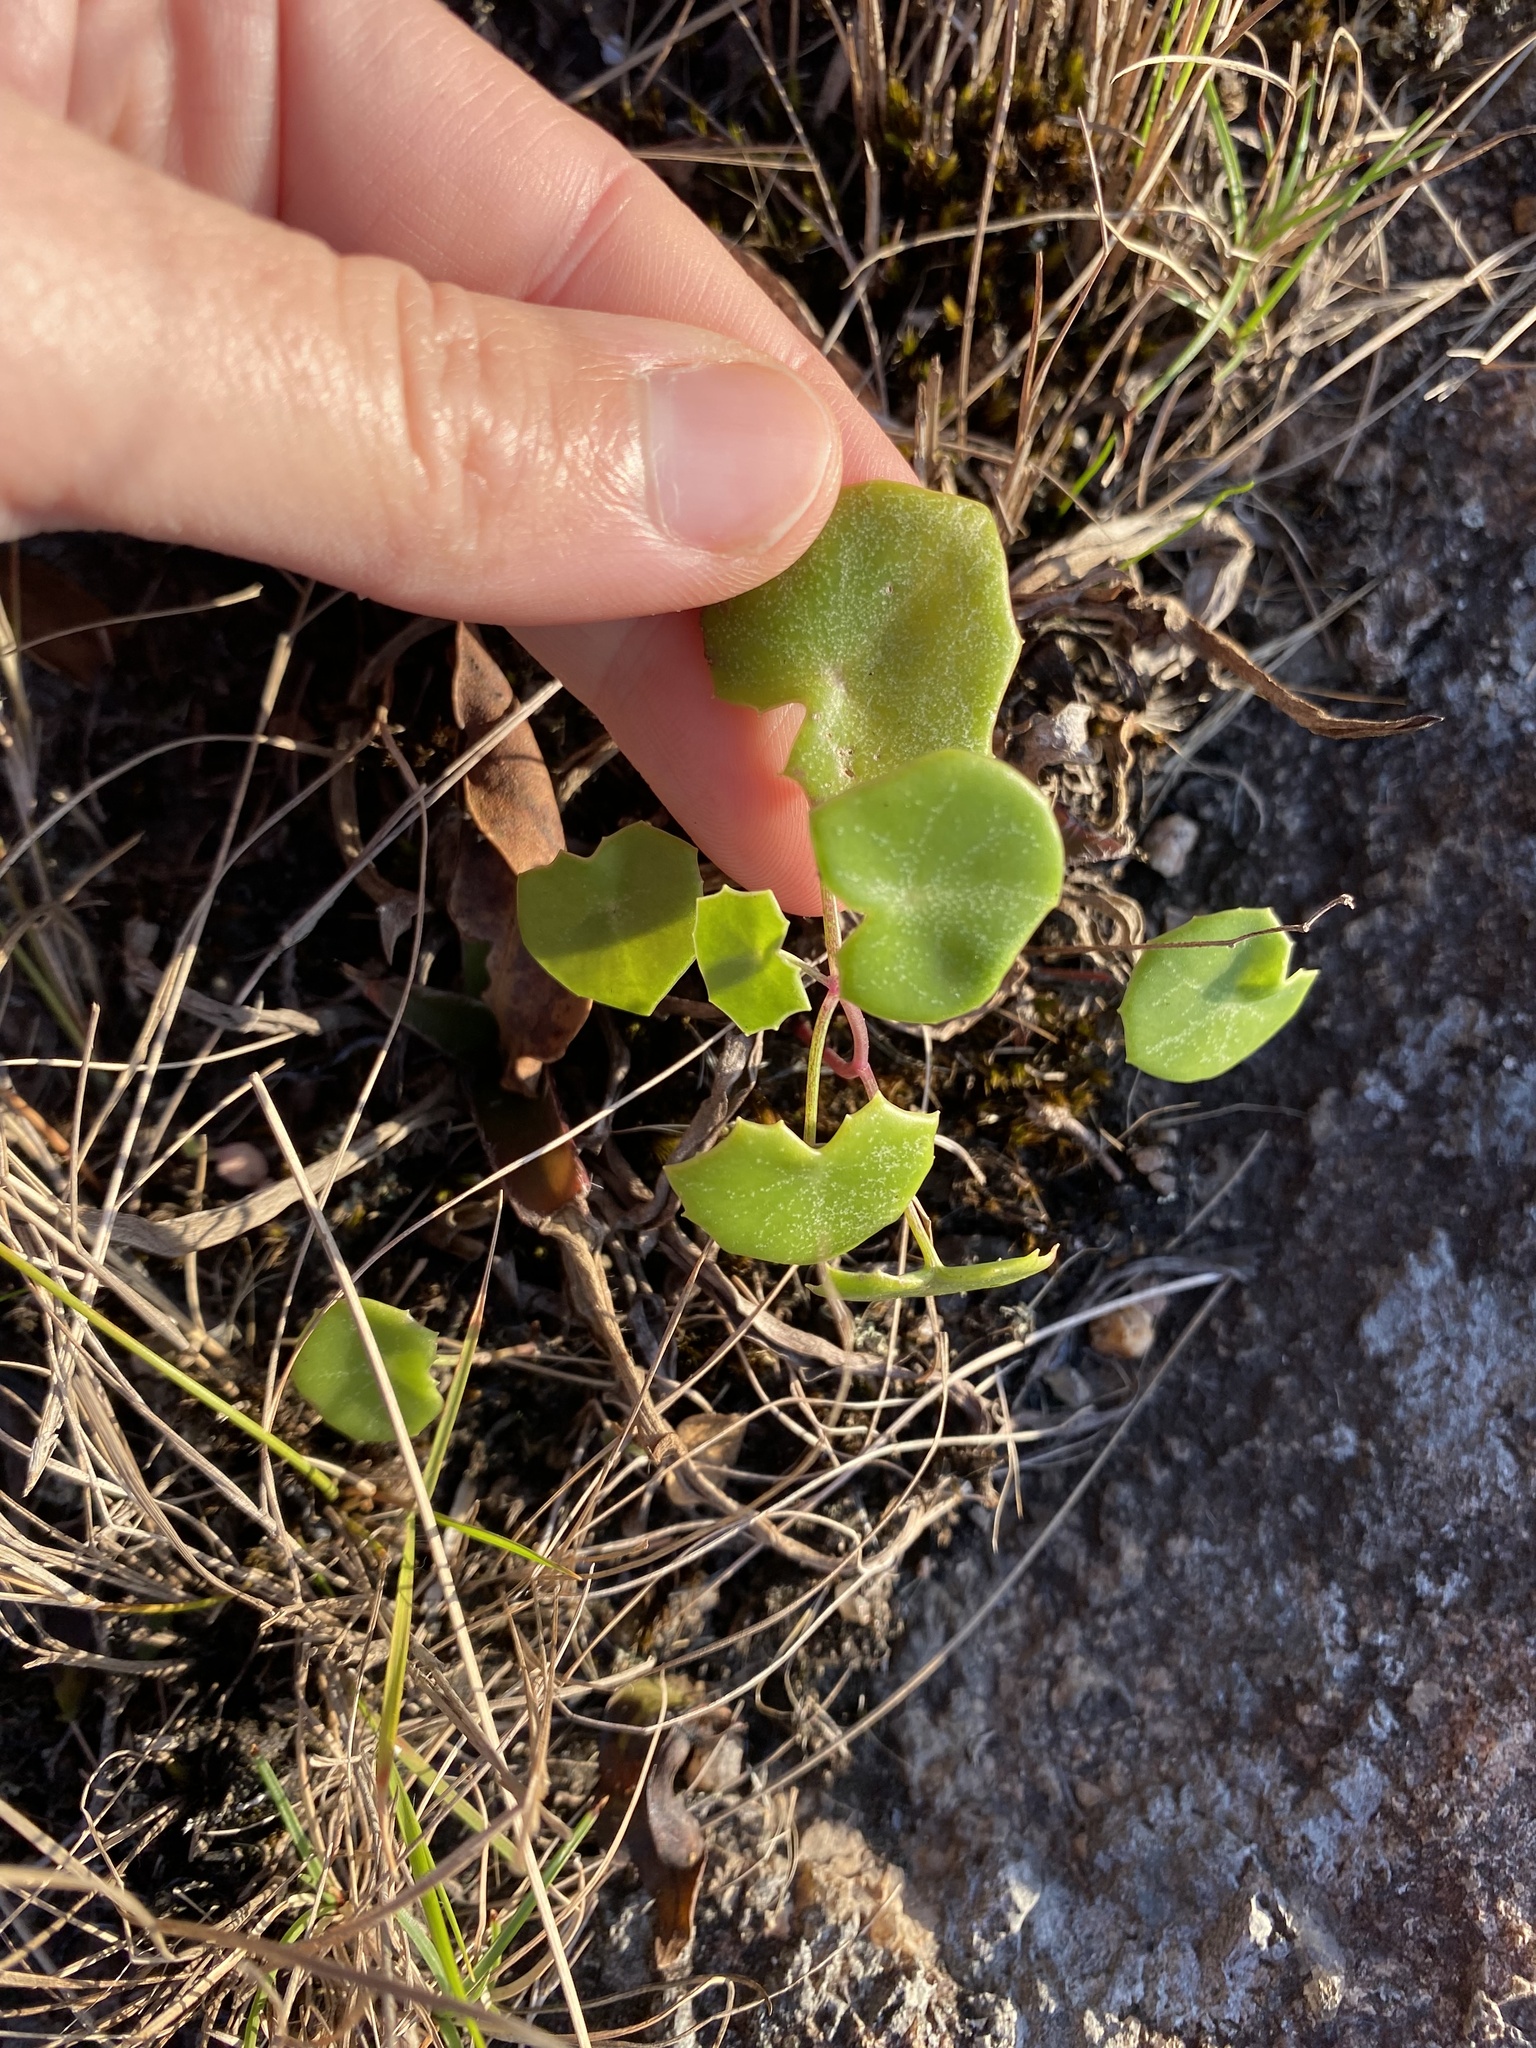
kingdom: Plantae
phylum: Tracheophyta
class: Magnoliopsida
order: Asterales
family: Asteraceae
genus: Senecio
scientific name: Senecio oxyriifolius
